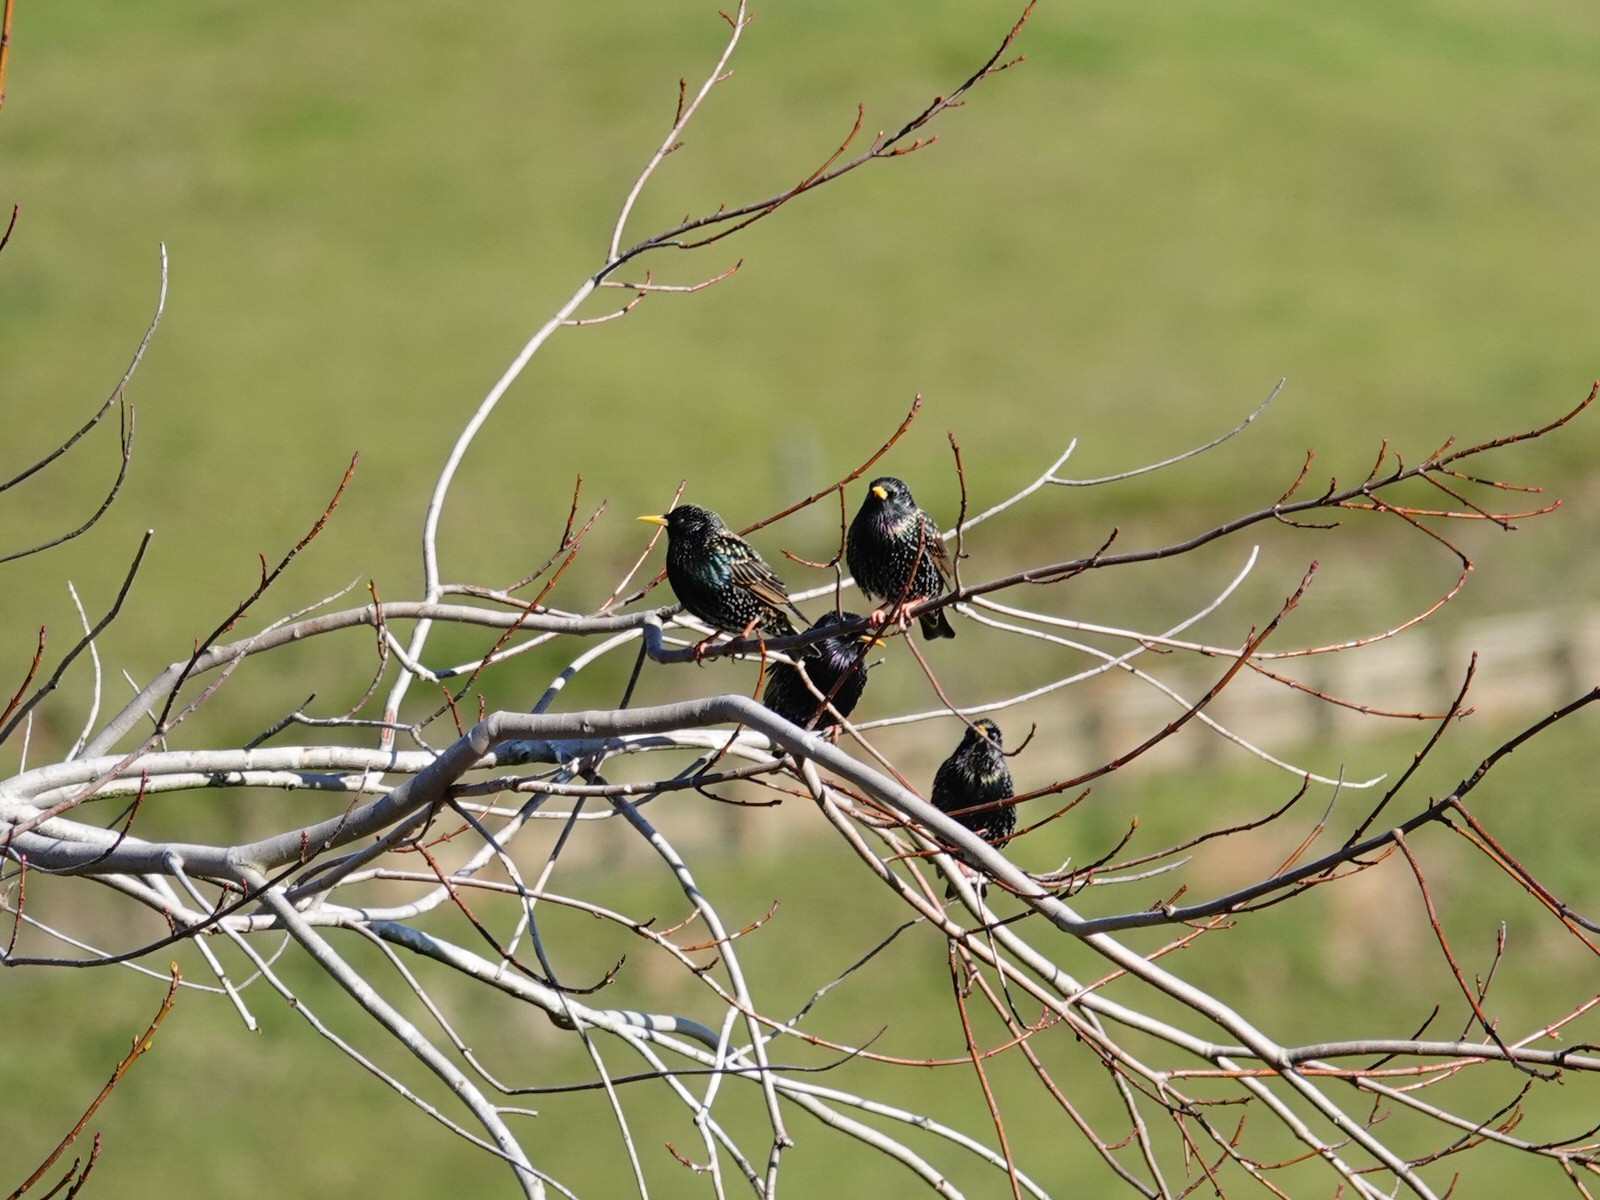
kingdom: Animalia
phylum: Chordata
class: Aves
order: Passeriformes
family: Sturnidae
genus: Sturnus
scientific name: Sturnus vulgaris
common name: Common starling
